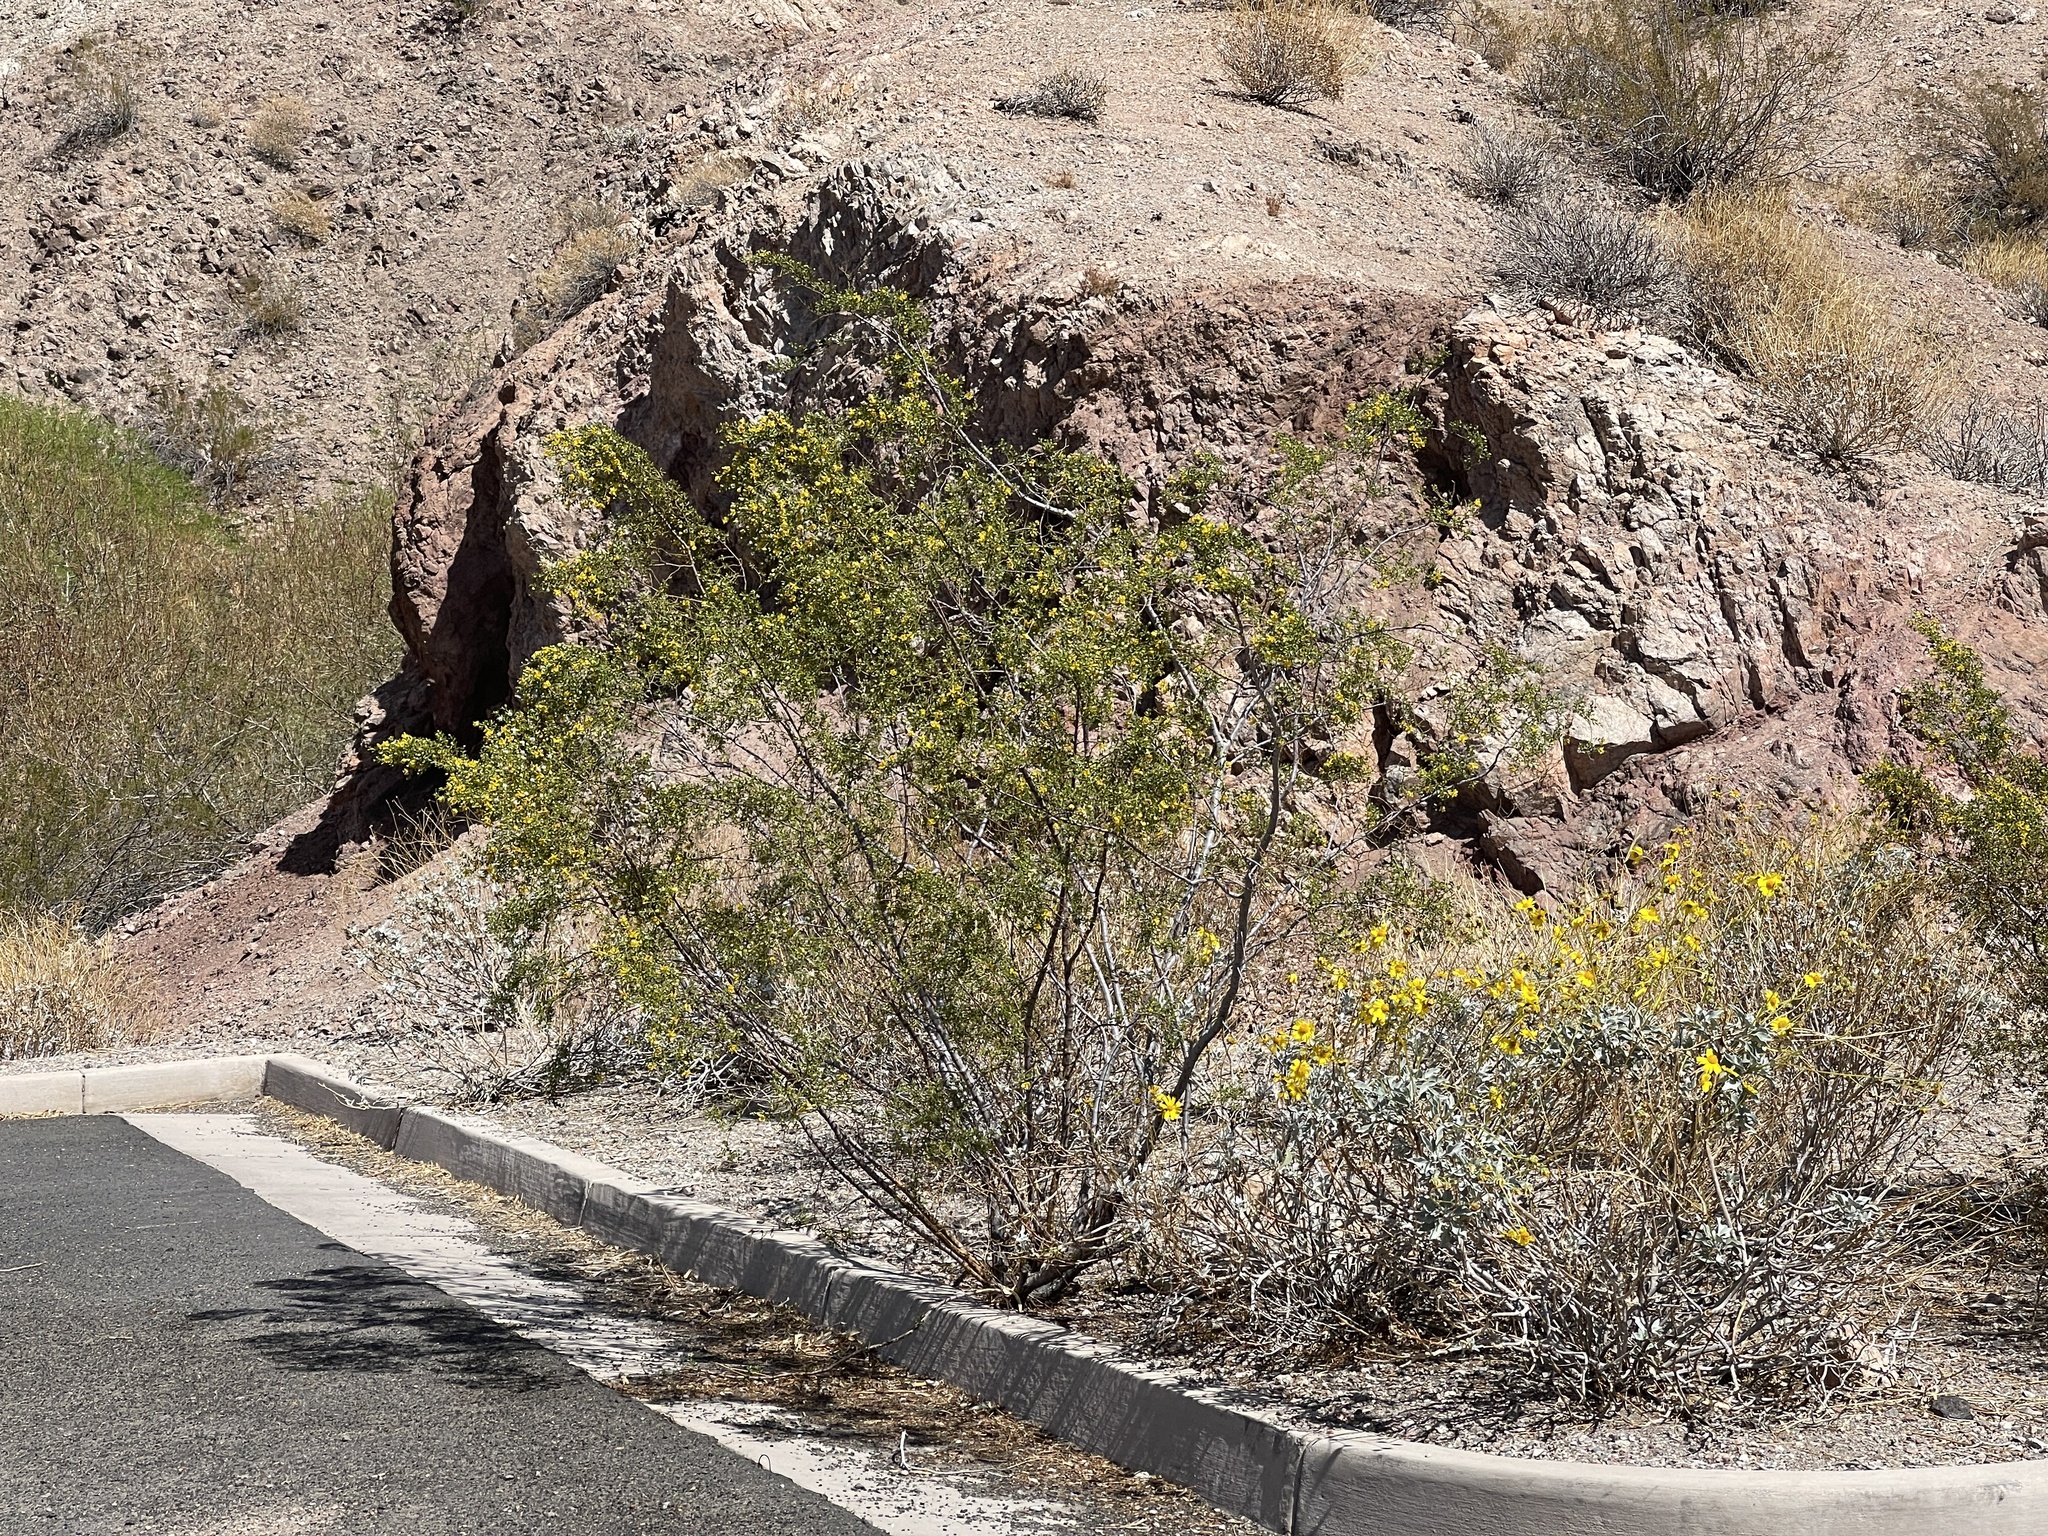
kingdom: Plantae
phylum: Tracheophyta
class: Magnoliopsida
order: Zygophyllales
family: Zygophyllaceae
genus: Larrea
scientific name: Larrea tridentata
